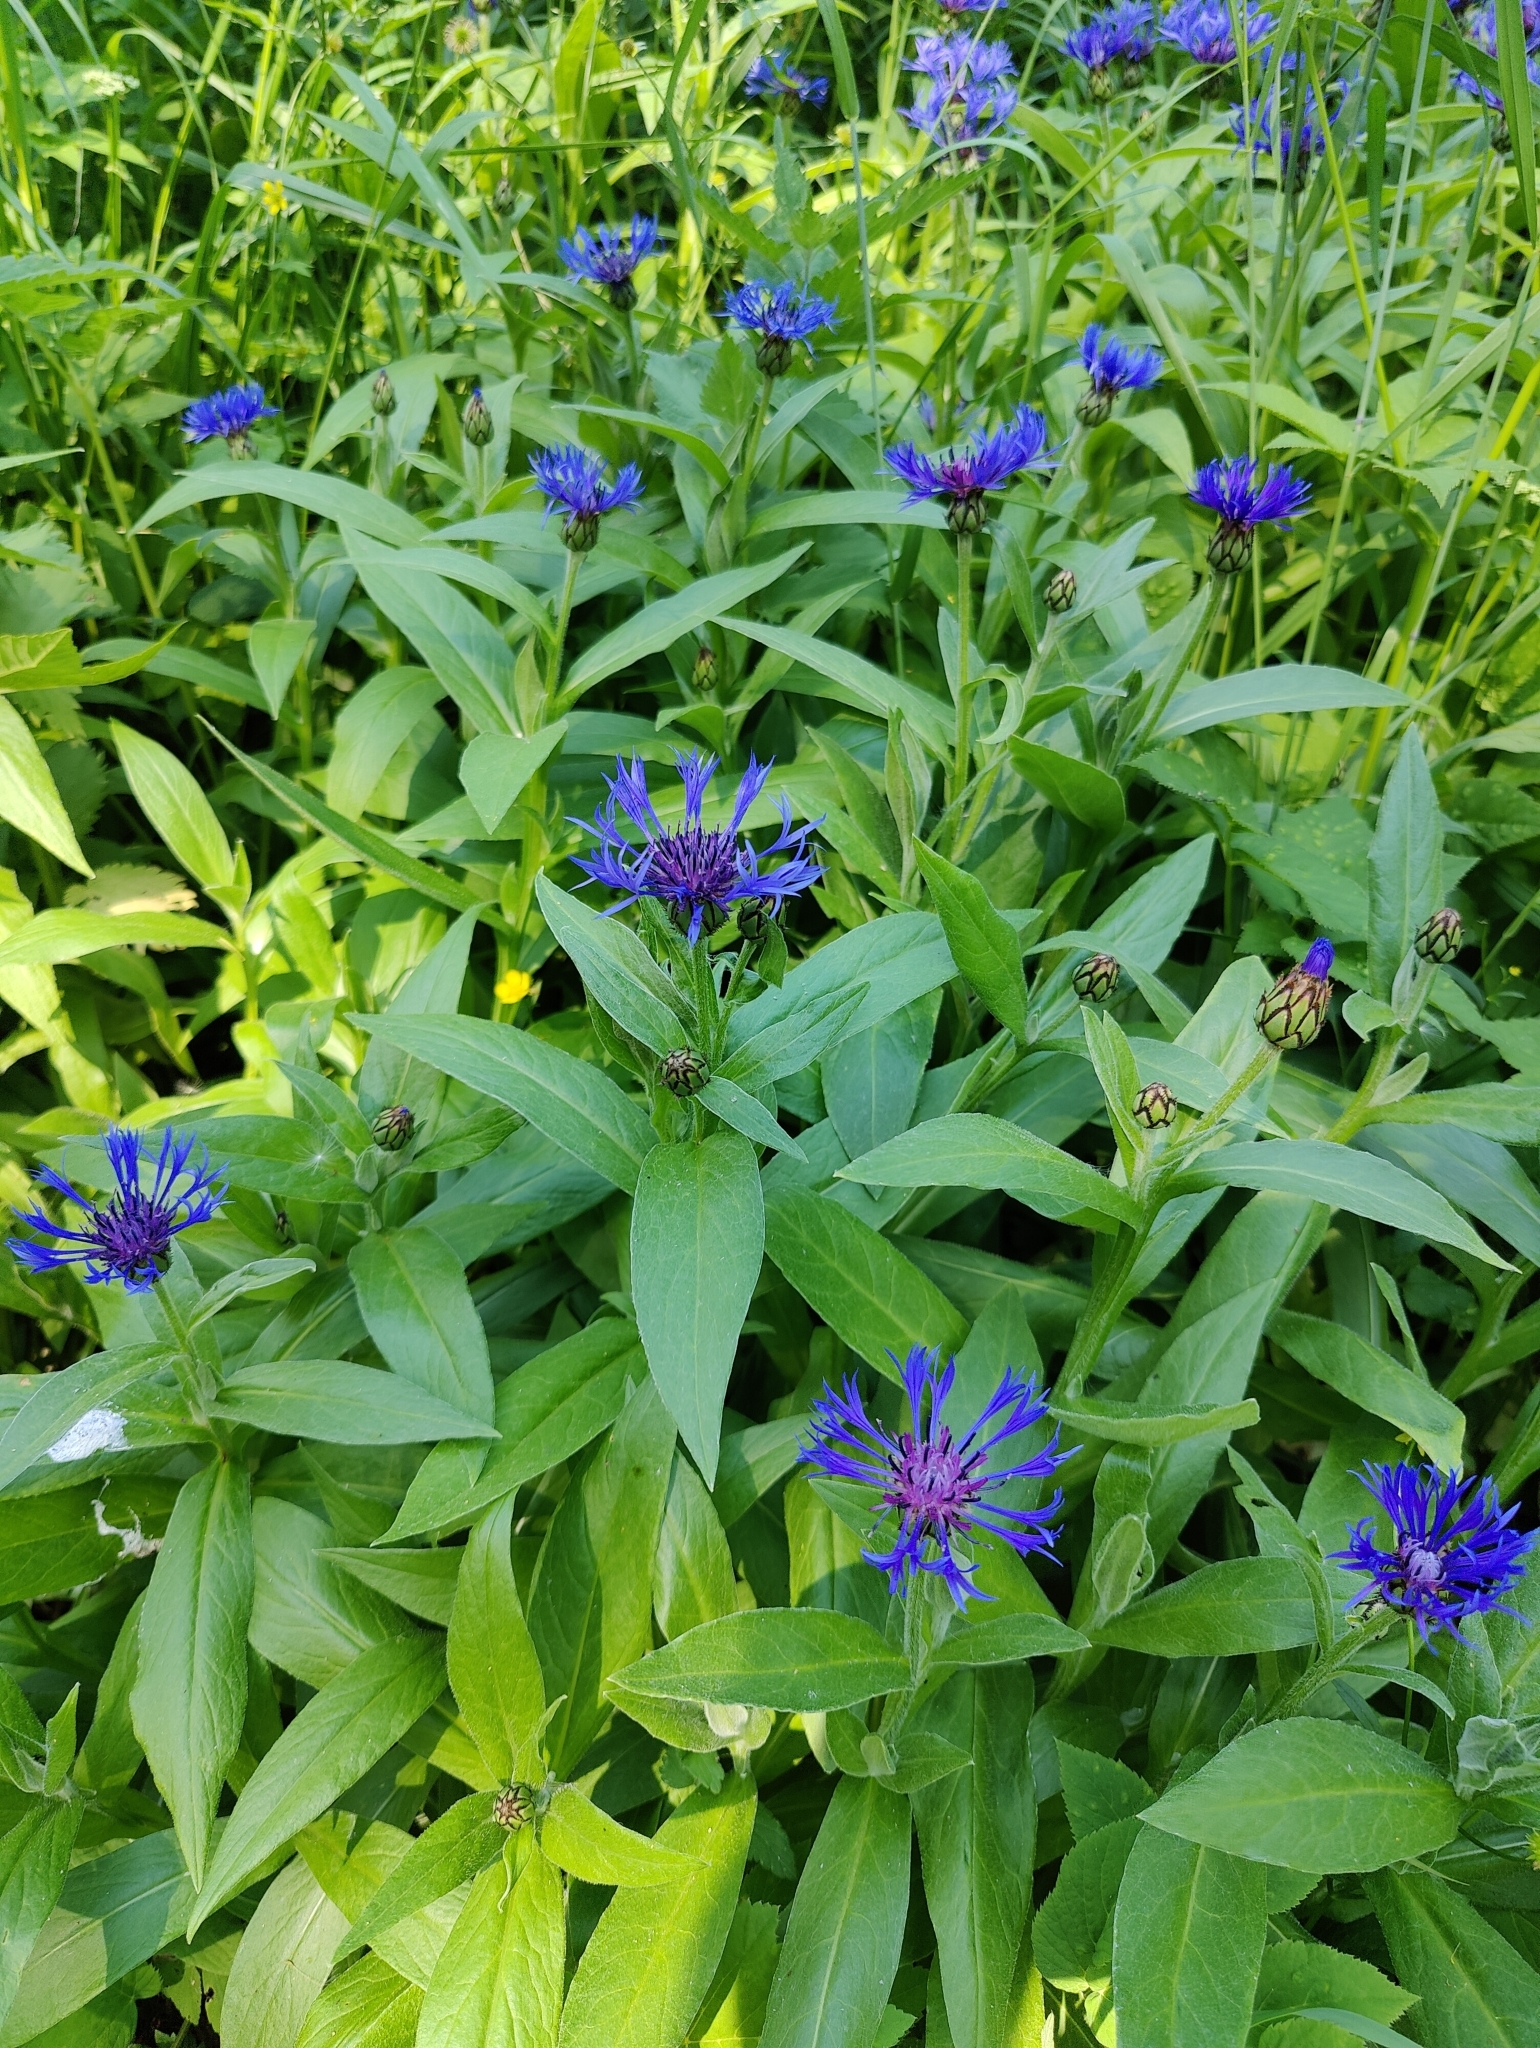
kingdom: Plantae
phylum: Tracheophyta
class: Magnoliopsida
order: Asterales
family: Asteraceae
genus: Centaurea
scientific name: Centaurea montana
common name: Perennial cornflower
